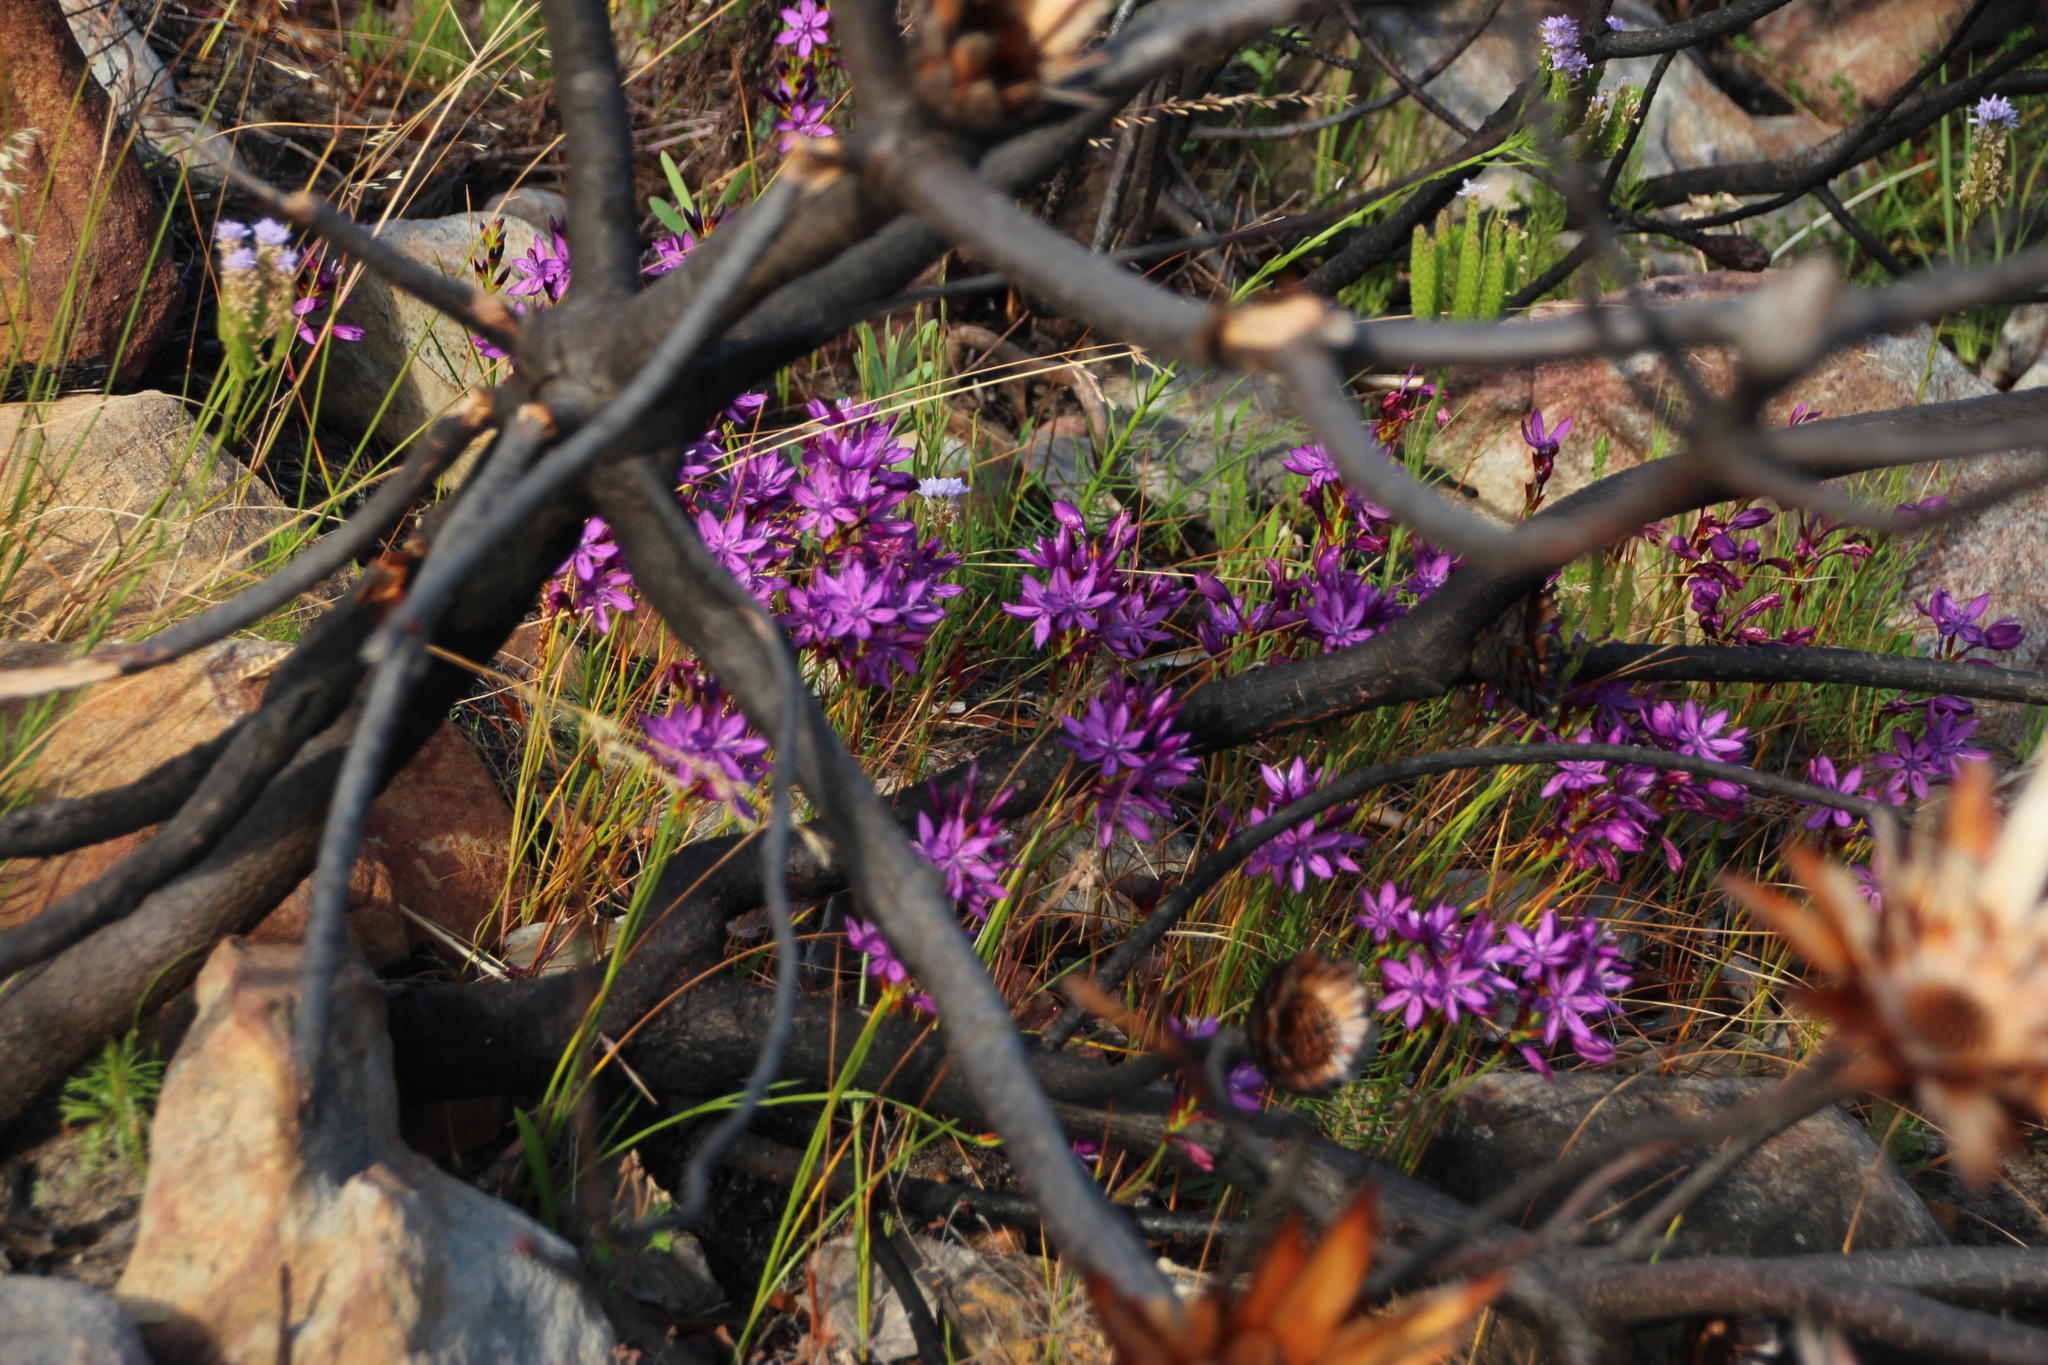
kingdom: Plantae
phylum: Tracheophyta
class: Liliopsida
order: Asparagales
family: Iridaceae
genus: Thereianthus
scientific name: Thereianthus bracteolatus
